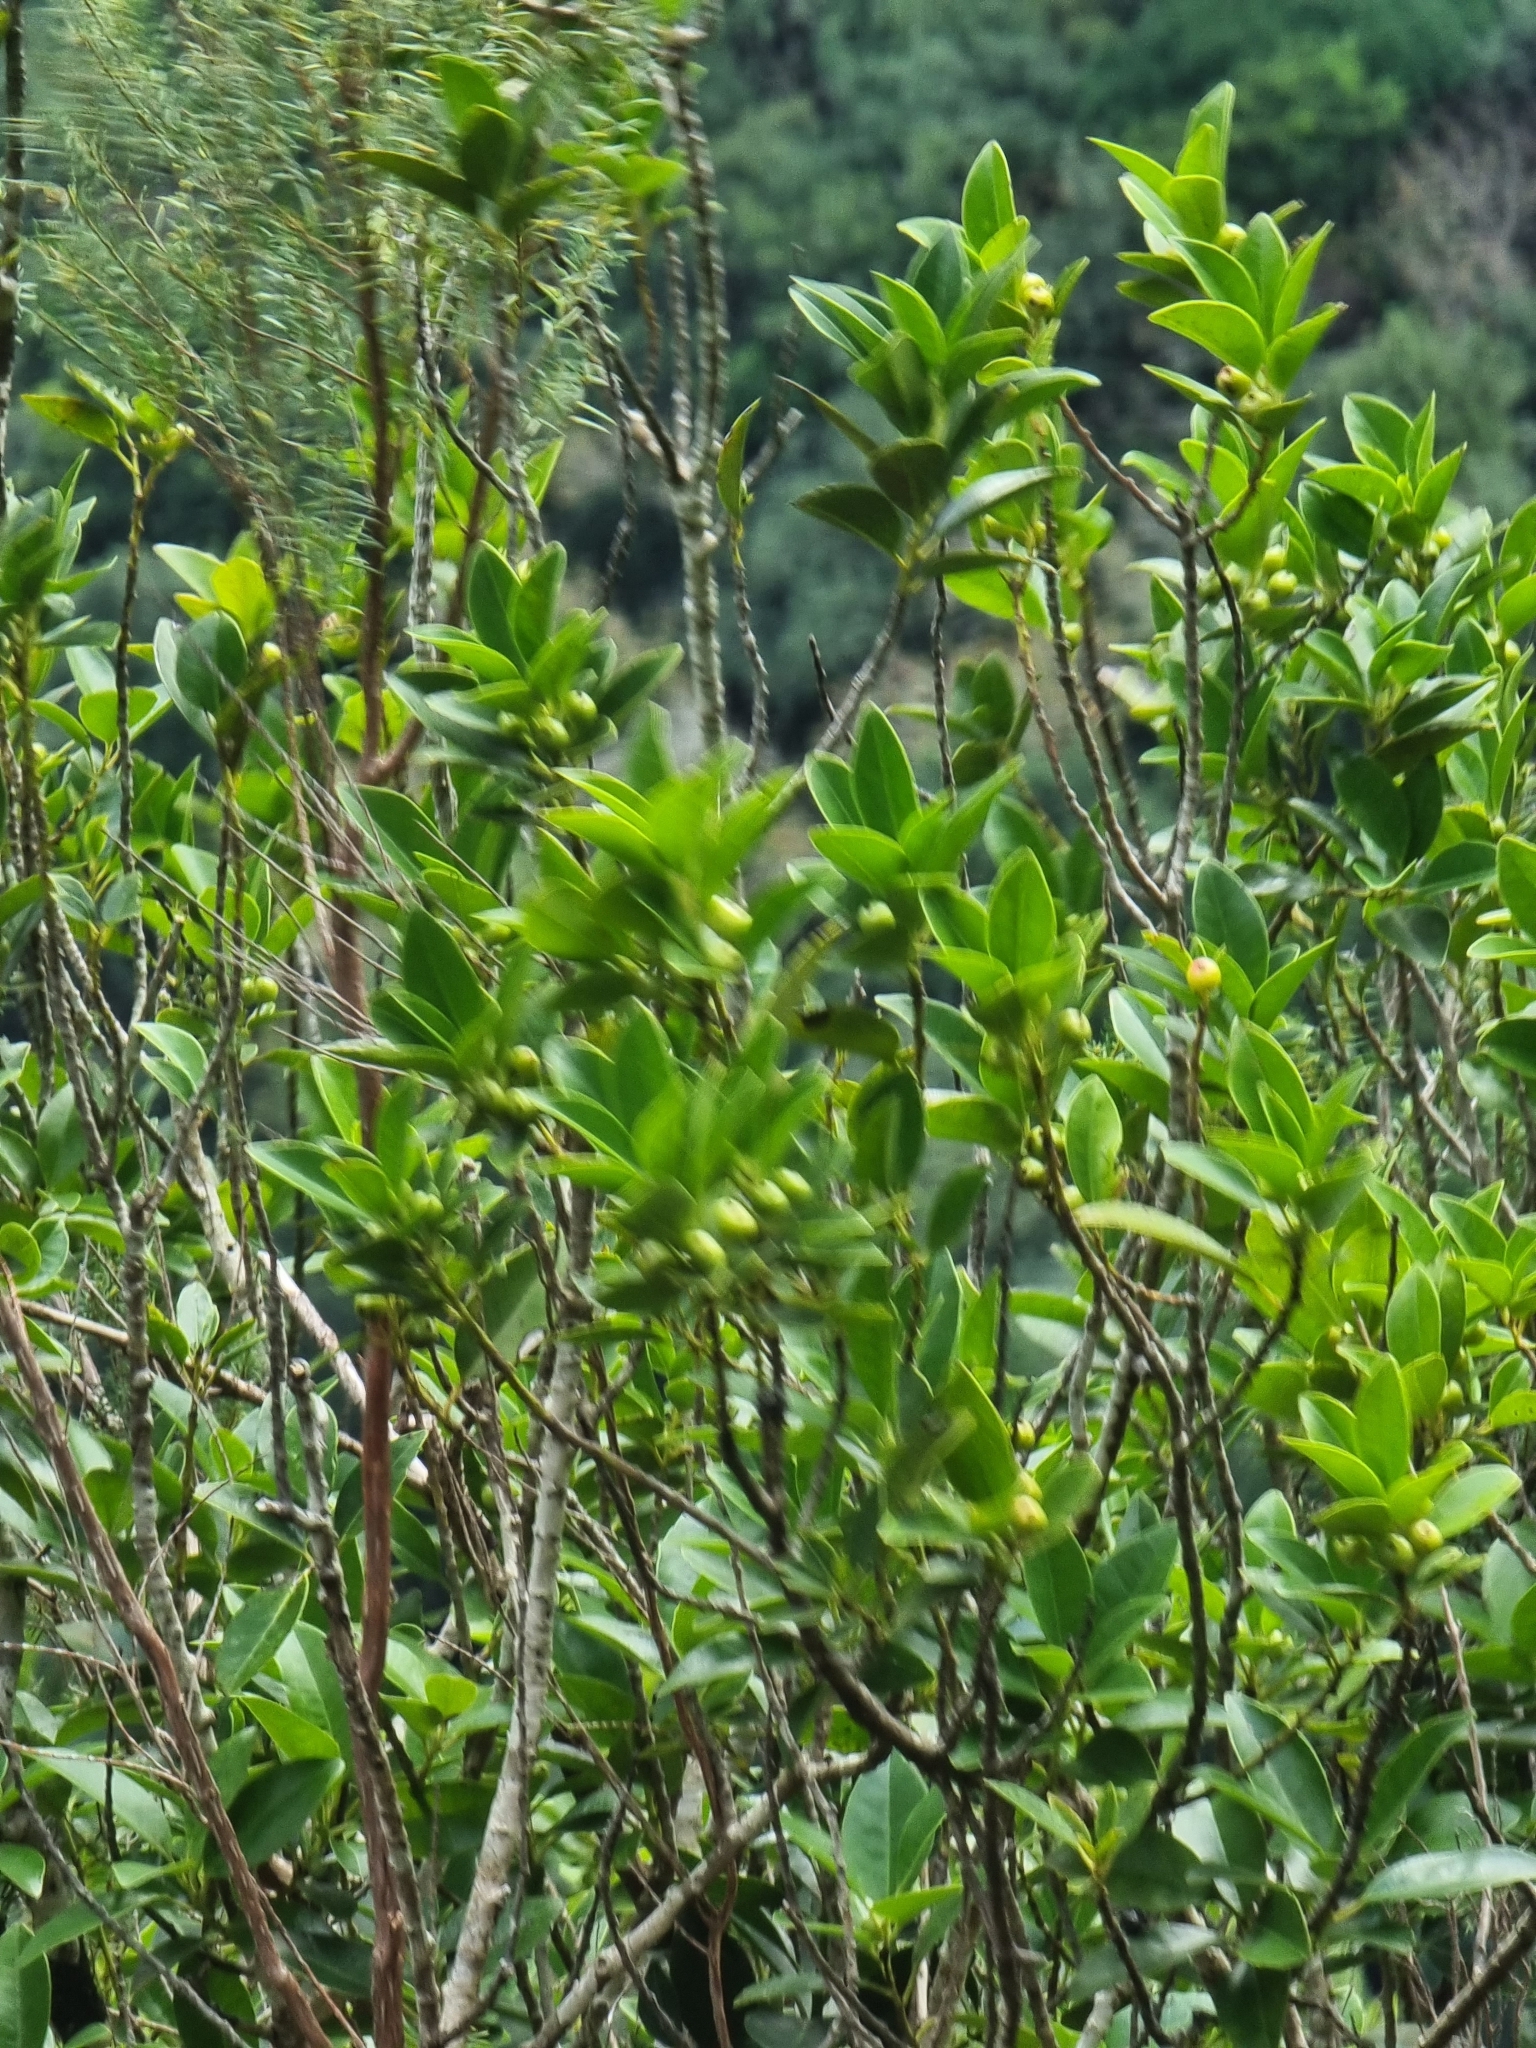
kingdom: Plantae
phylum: Tracheophyta
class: Magnoliopsida
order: Aquifoliales
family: Aquifoliaceae
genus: Ilex
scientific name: Ilex canariensis
